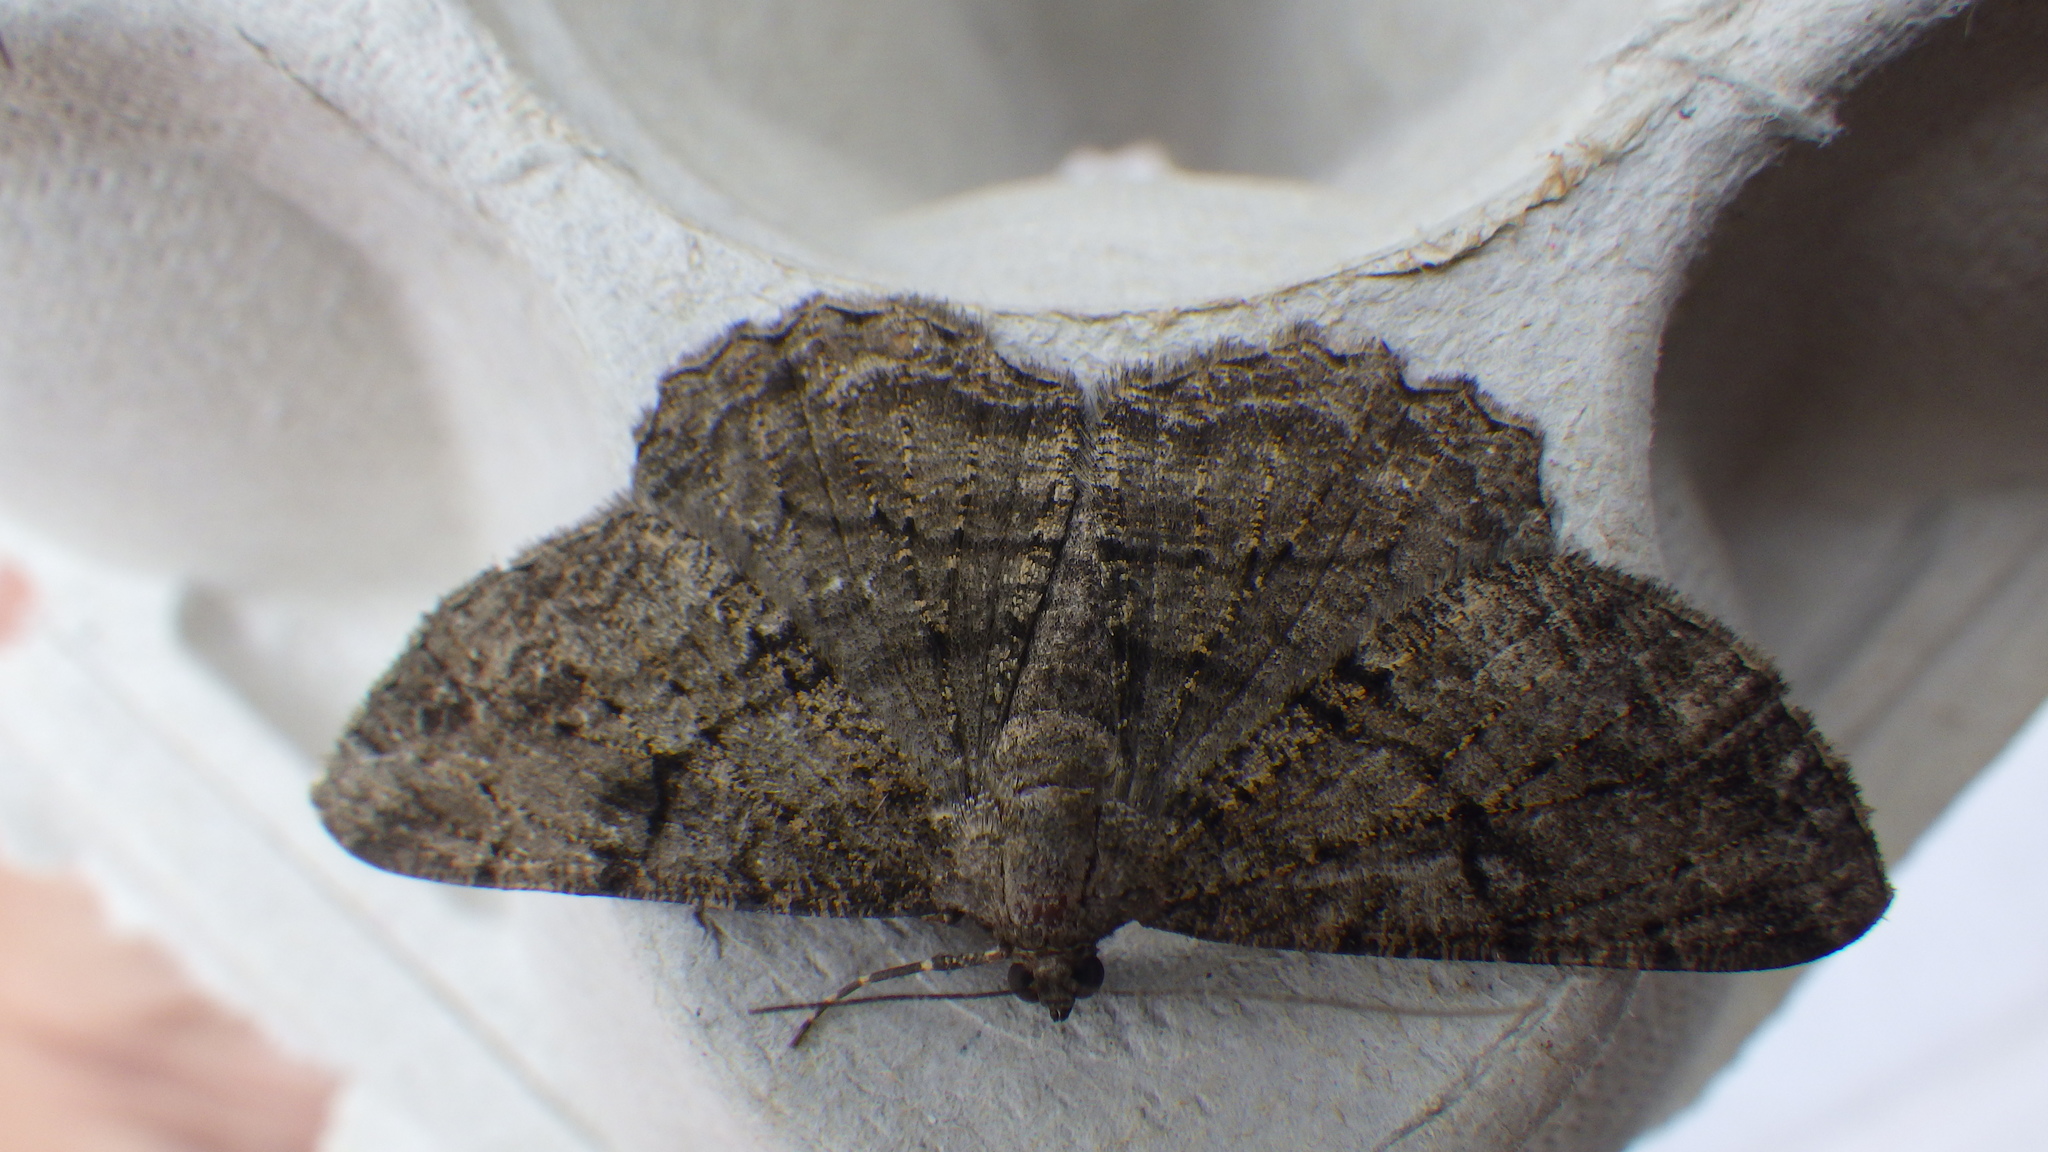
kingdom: Animalia
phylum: Arthropoda
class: Insecta
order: Lepidoptera
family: Geometridae
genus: Peribatodes
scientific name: Peribatodes rhomboidaria
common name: Willow beauty
